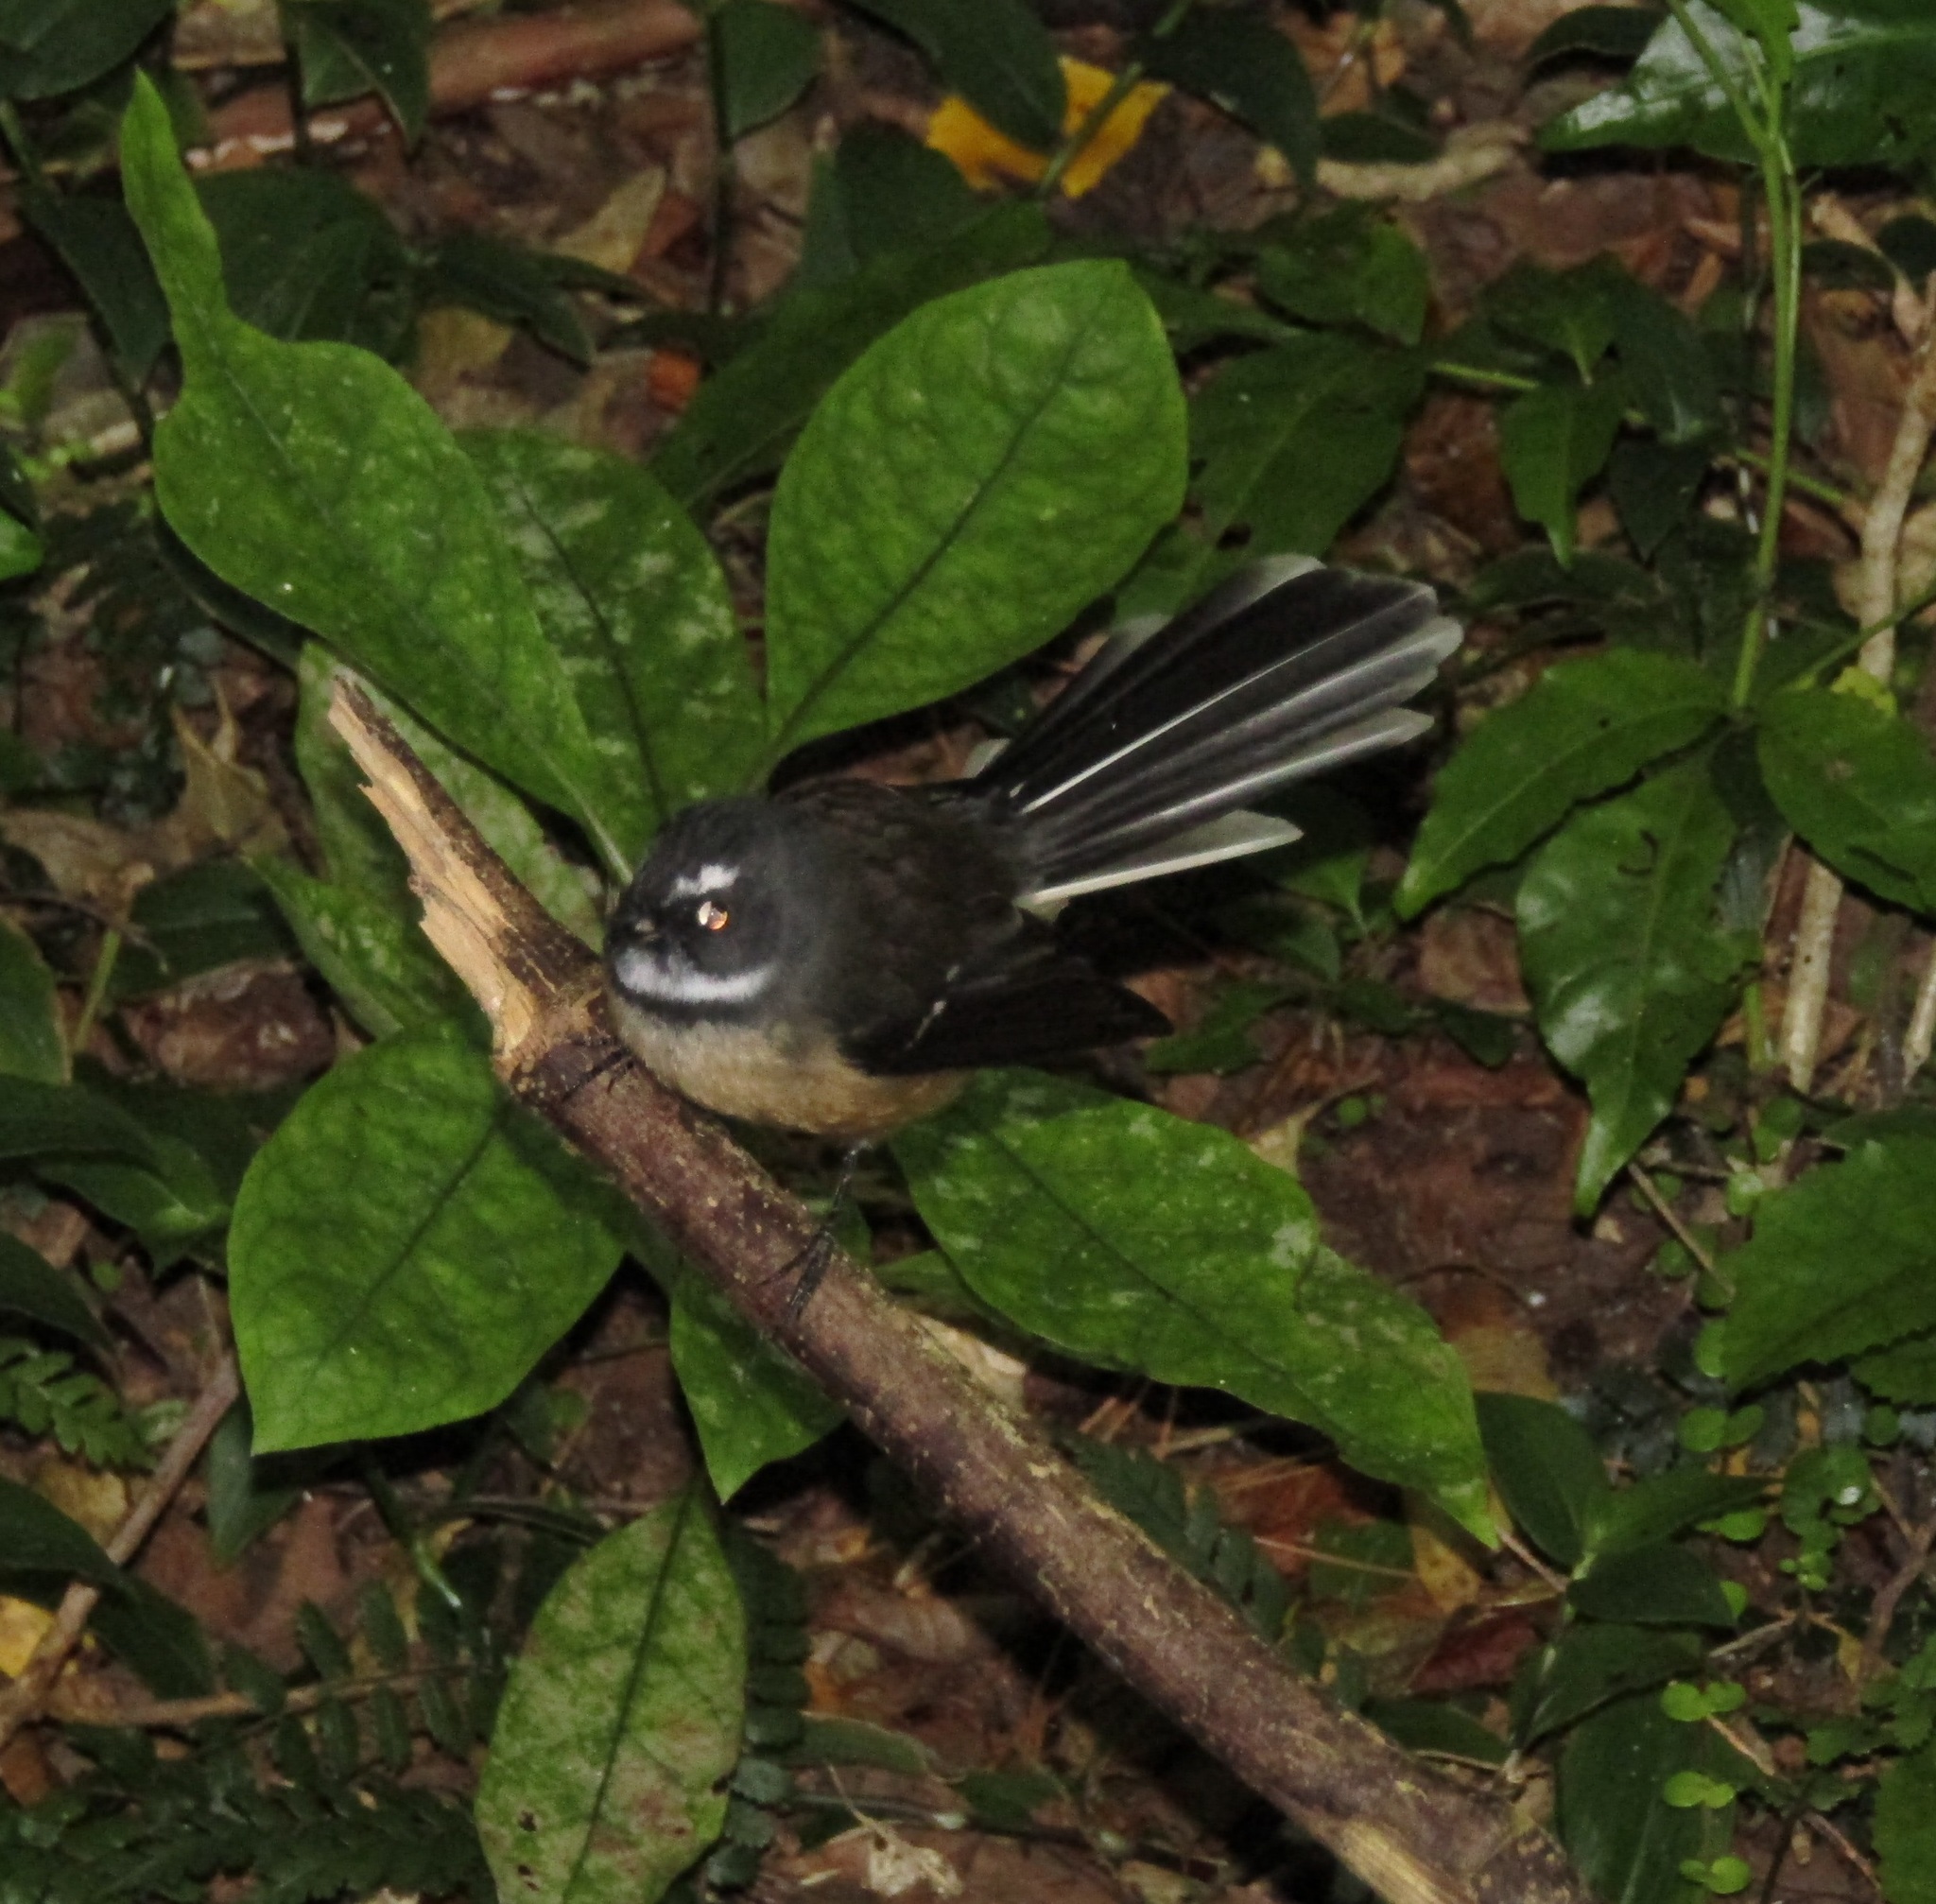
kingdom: Animalia
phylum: Chordata
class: Aves
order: Passeriformes
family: Rhipiduridae
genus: Rhipidura
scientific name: Rhipidura fuliginosa
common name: New zealand fantail
